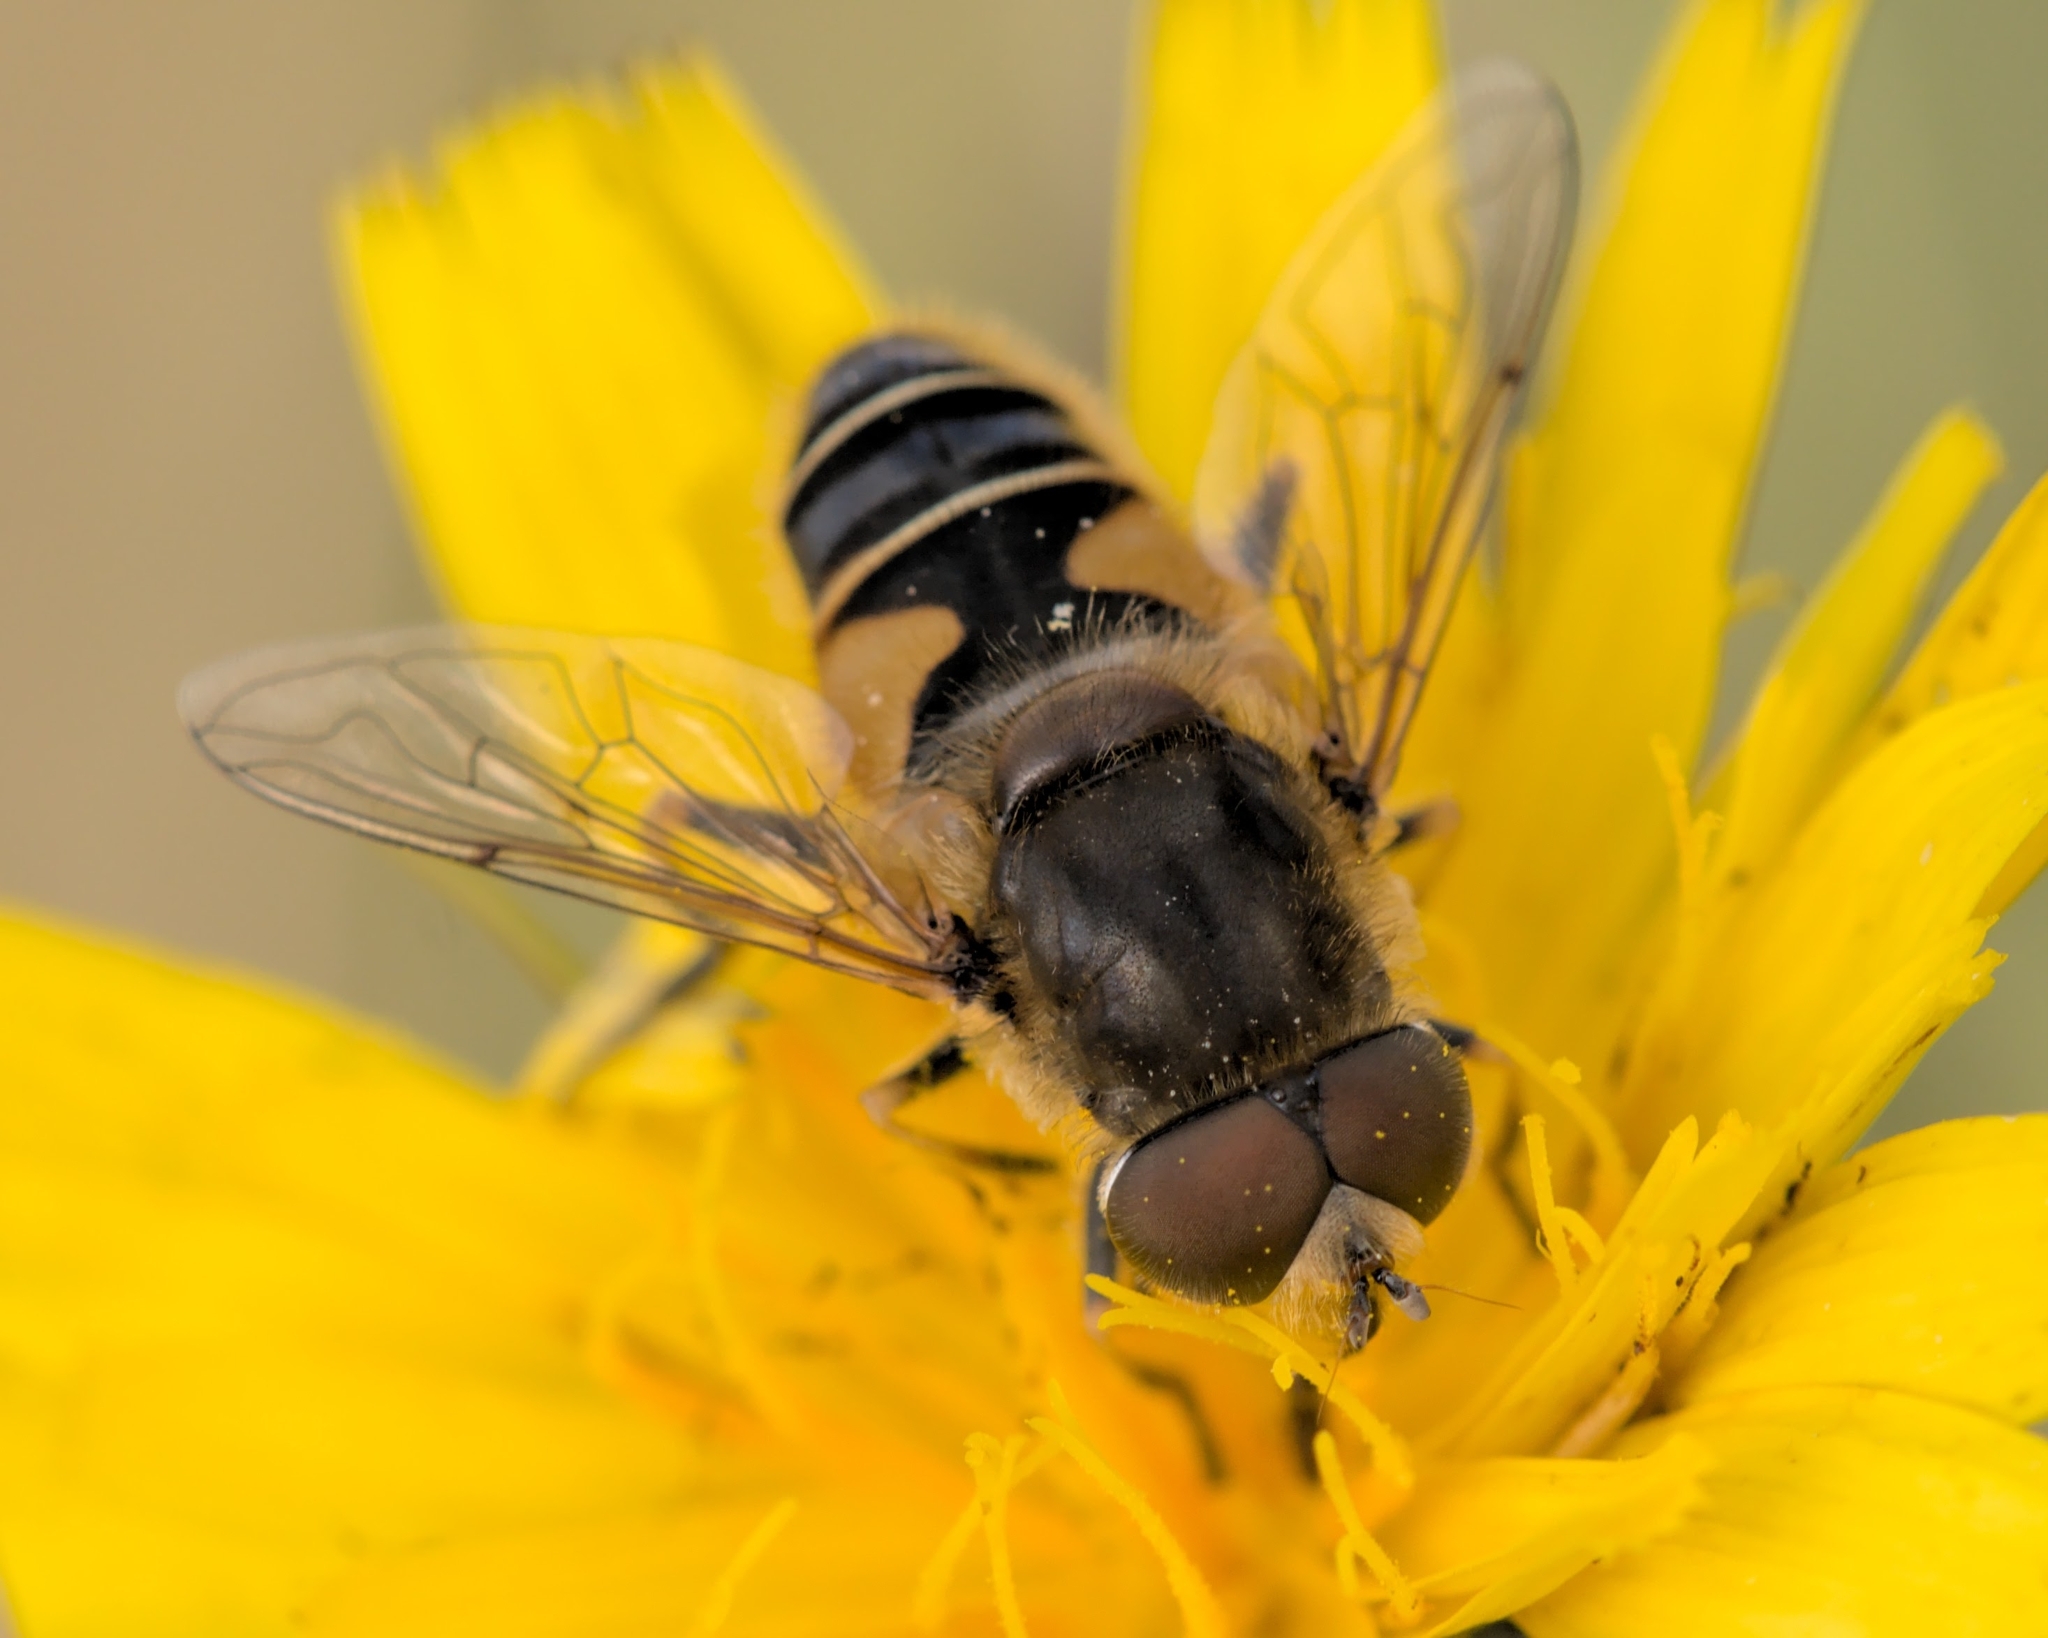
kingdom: Animalia
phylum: Arthropoda
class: Insecta
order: Diptera
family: Syrphidae
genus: Eristalis
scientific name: Eristalis nemorum
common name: Orange-spined drone fly
